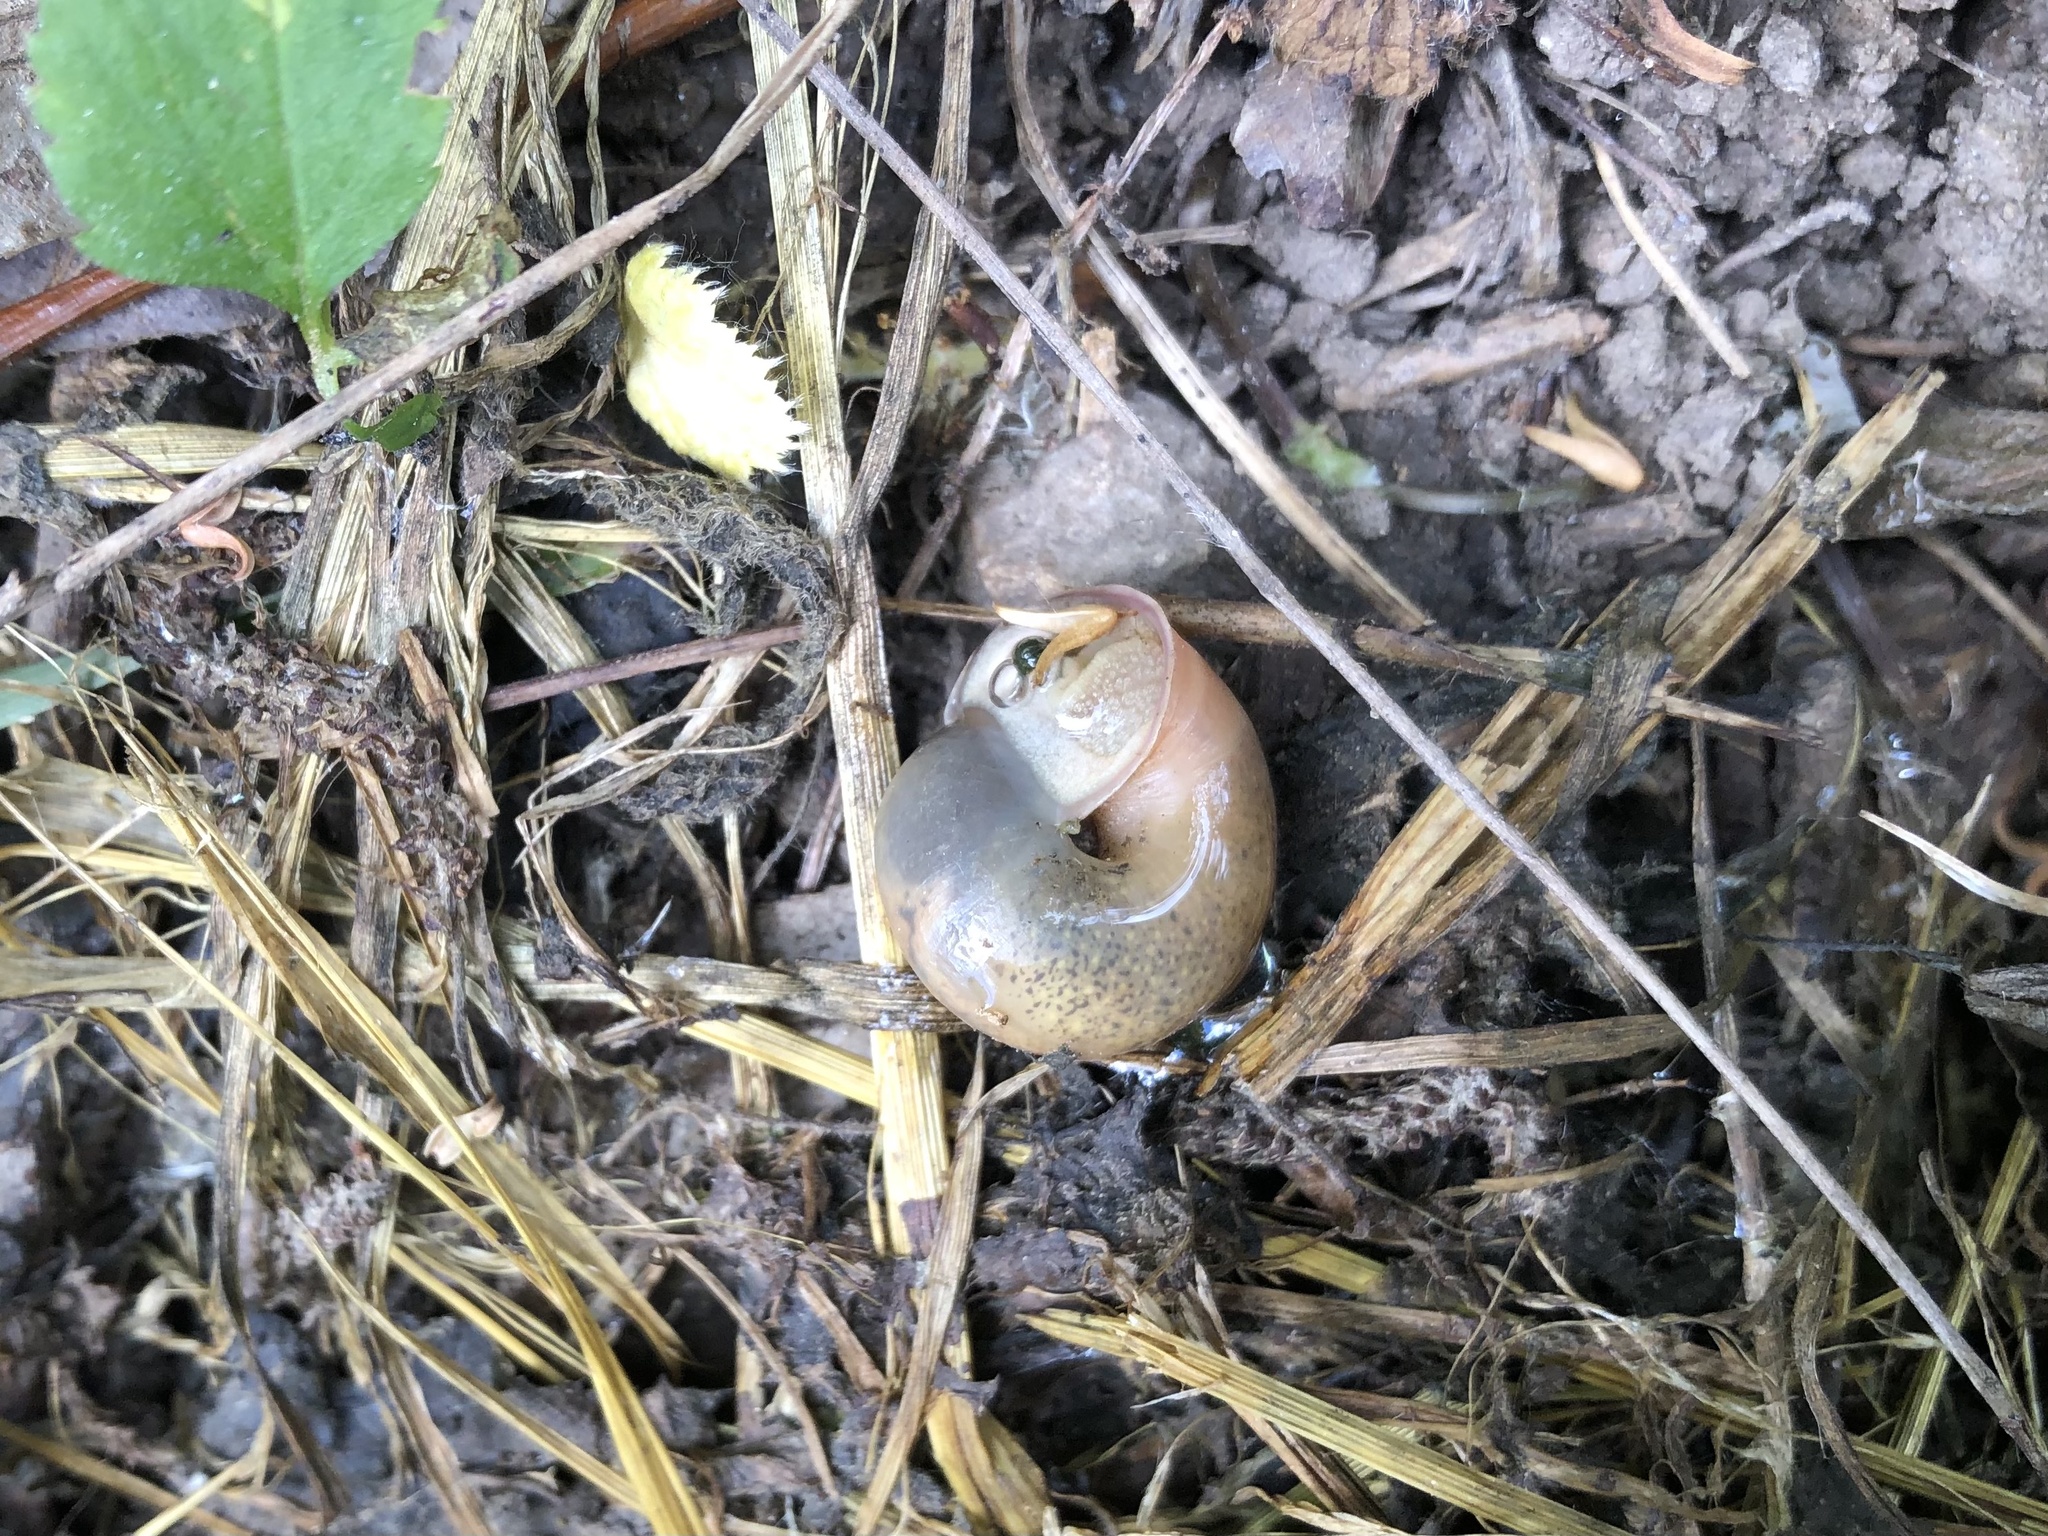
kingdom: Animalia
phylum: Mollusca
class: Gastropoda
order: Stylommatophora
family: Camaenidae
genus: Fruticicola
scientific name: Fruticicola fruticum
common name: Bush snail
